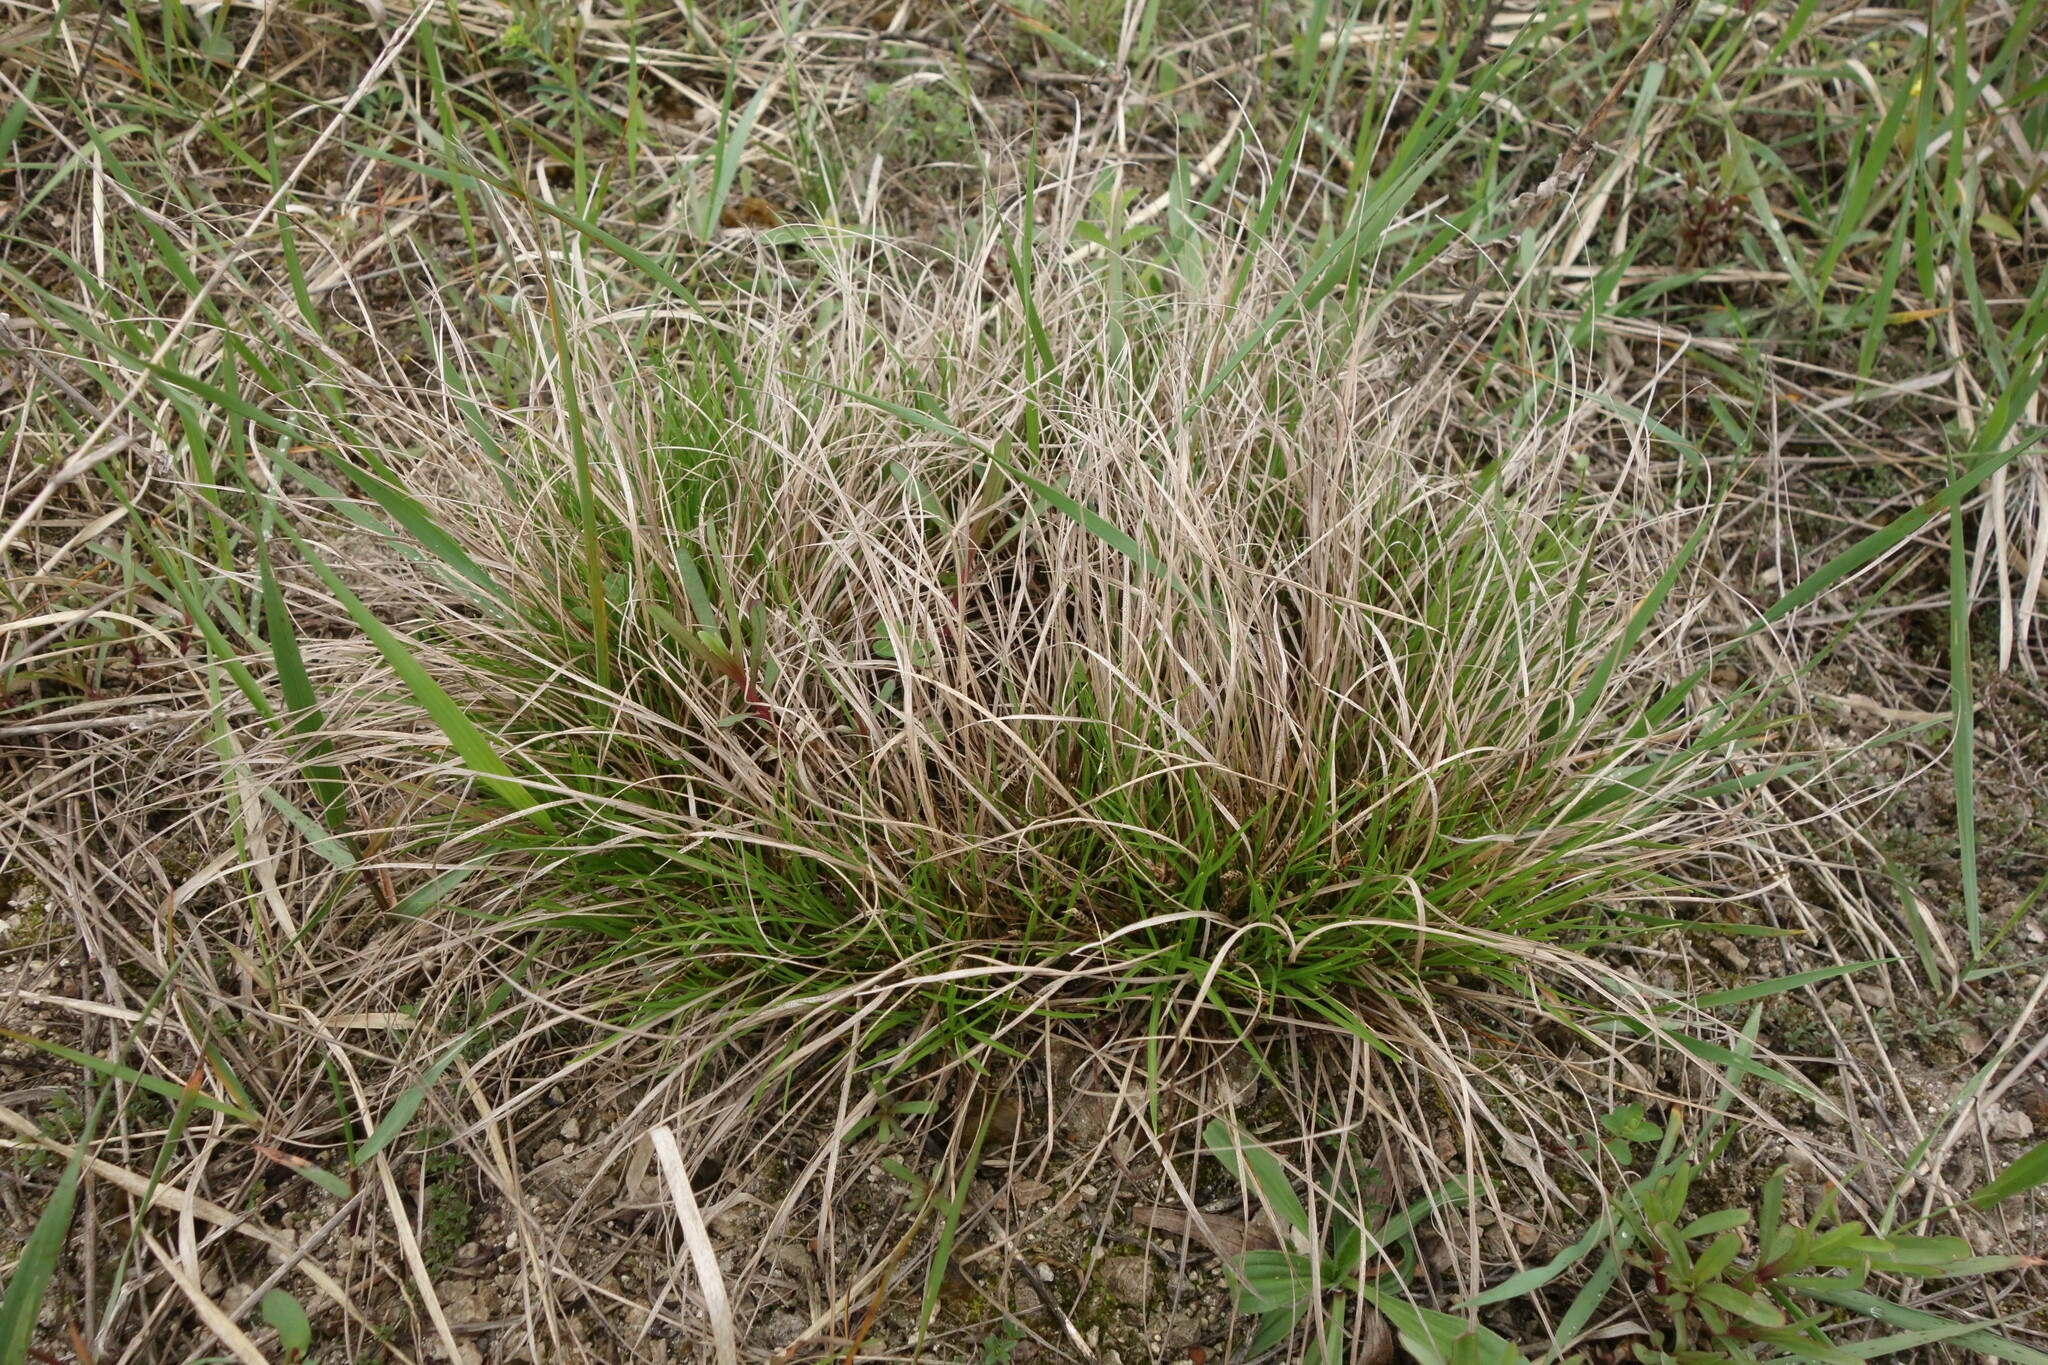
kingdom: Plantae
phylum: Tracheophyta
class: Liliopsida
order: Poales
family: Cyperaceae
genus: Carex
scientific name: Carex humilis
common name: Dwarf sedge
